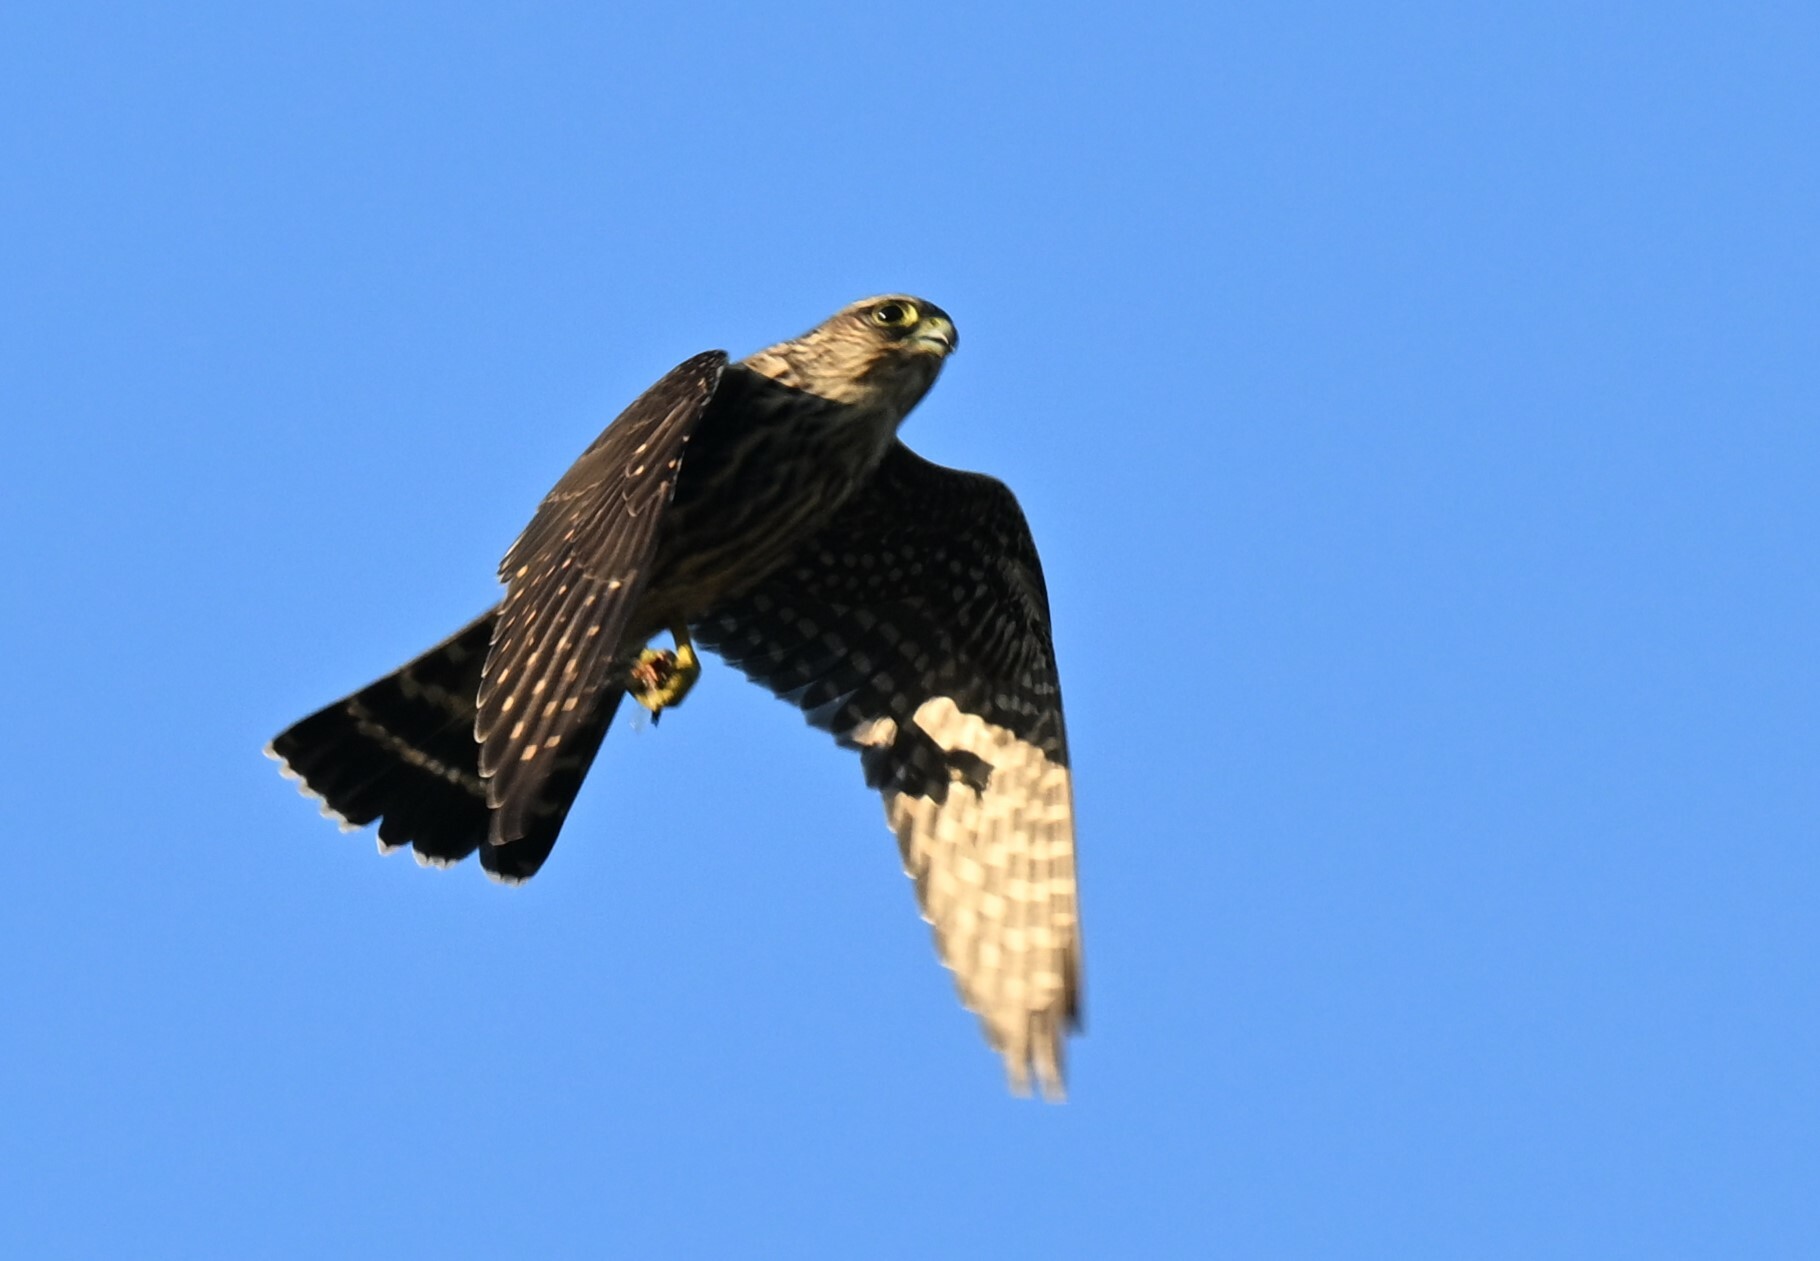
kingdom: Animalia
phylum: Chordata
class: Aves
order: Falconiformes
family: Falconidae
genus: Falco
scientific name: Falco columbarius
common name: Merlin
